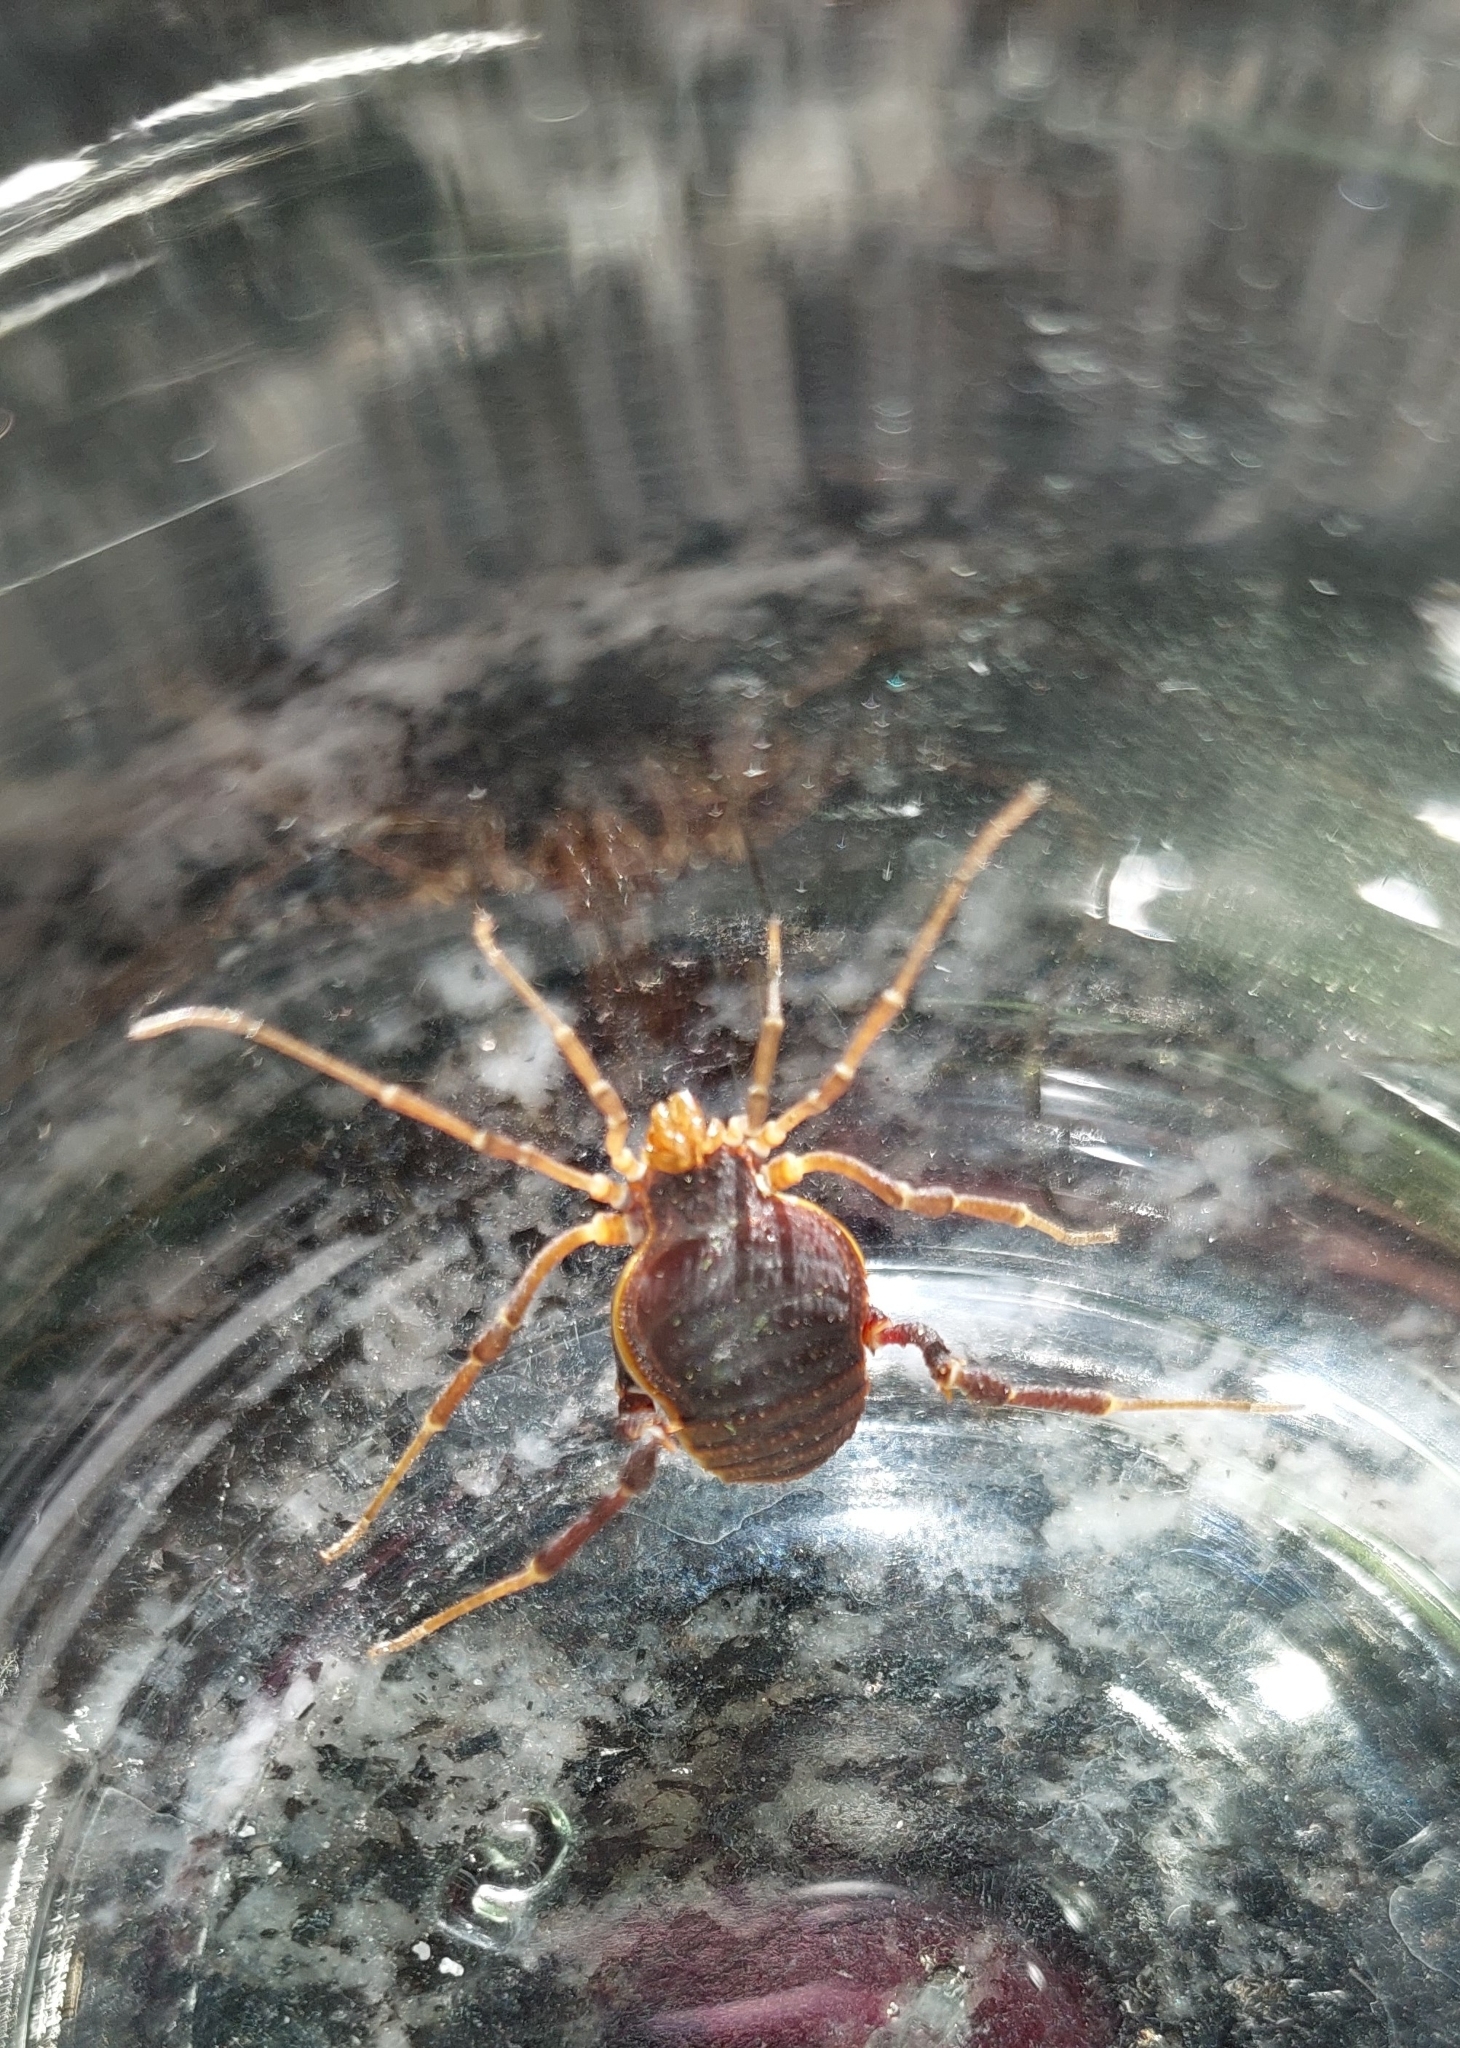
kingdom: Animalia
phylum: Arthropoda
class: Arachnida
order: Opiliones
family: Gonyleptidae
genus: Acanthopachylus
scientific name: Acanthopachylus robustus
